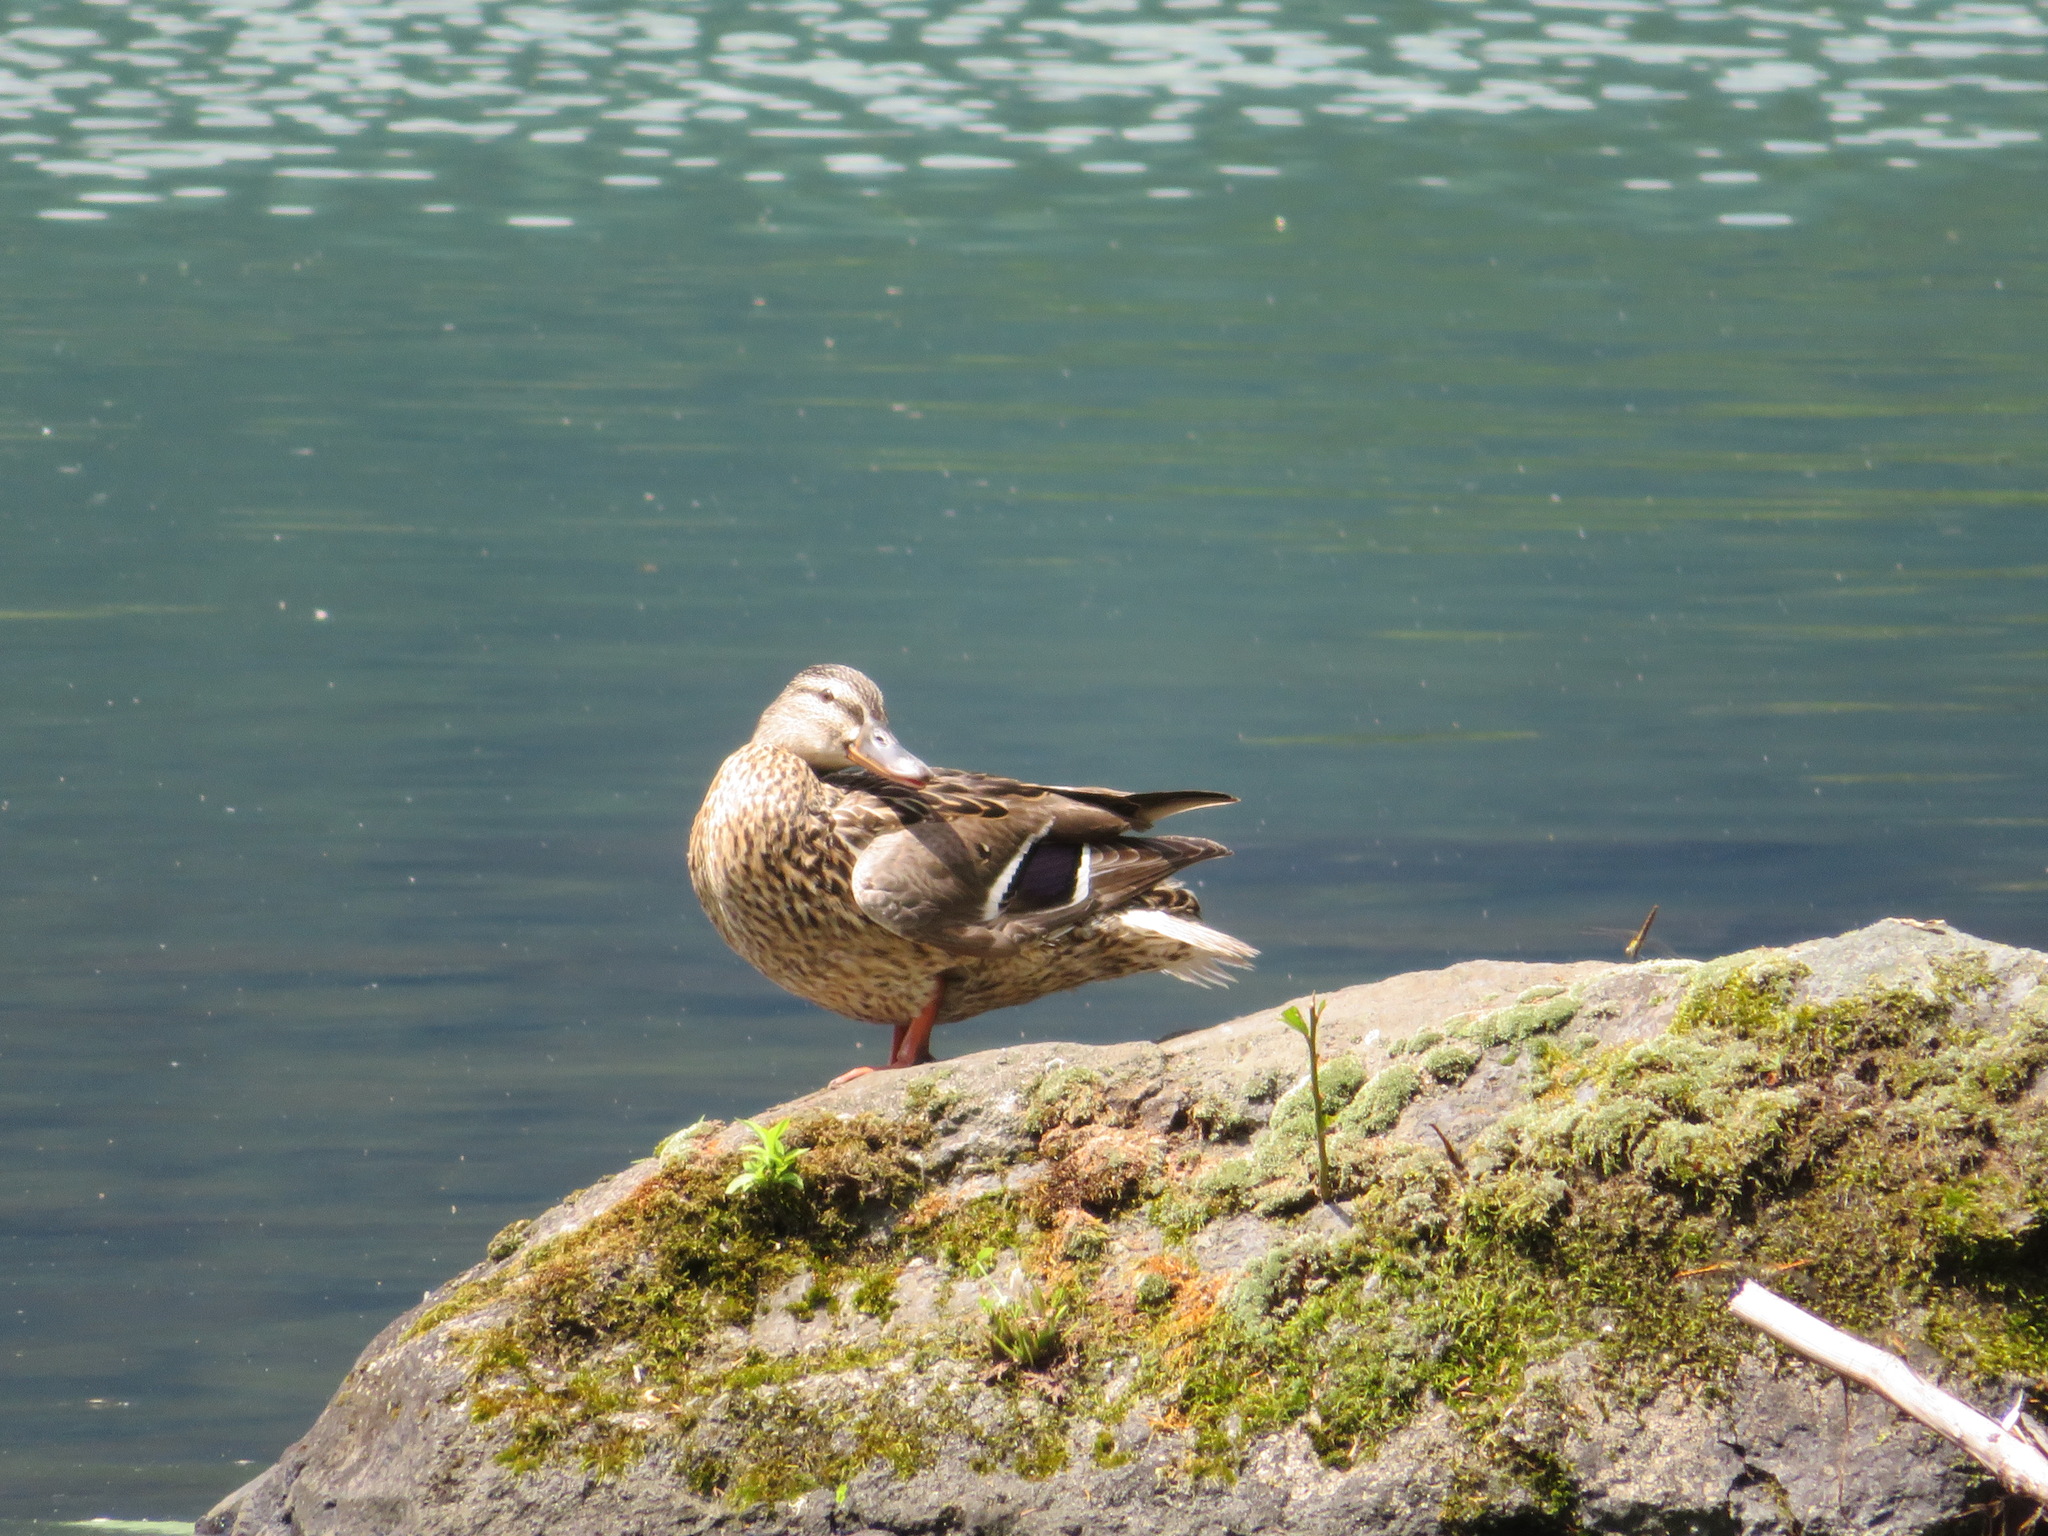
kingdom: Animalia
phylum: Chordata
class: Aves
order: Anseriformes
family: Anatidae
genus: Anas
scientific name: Anas platyrhynchos
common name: Mallard
